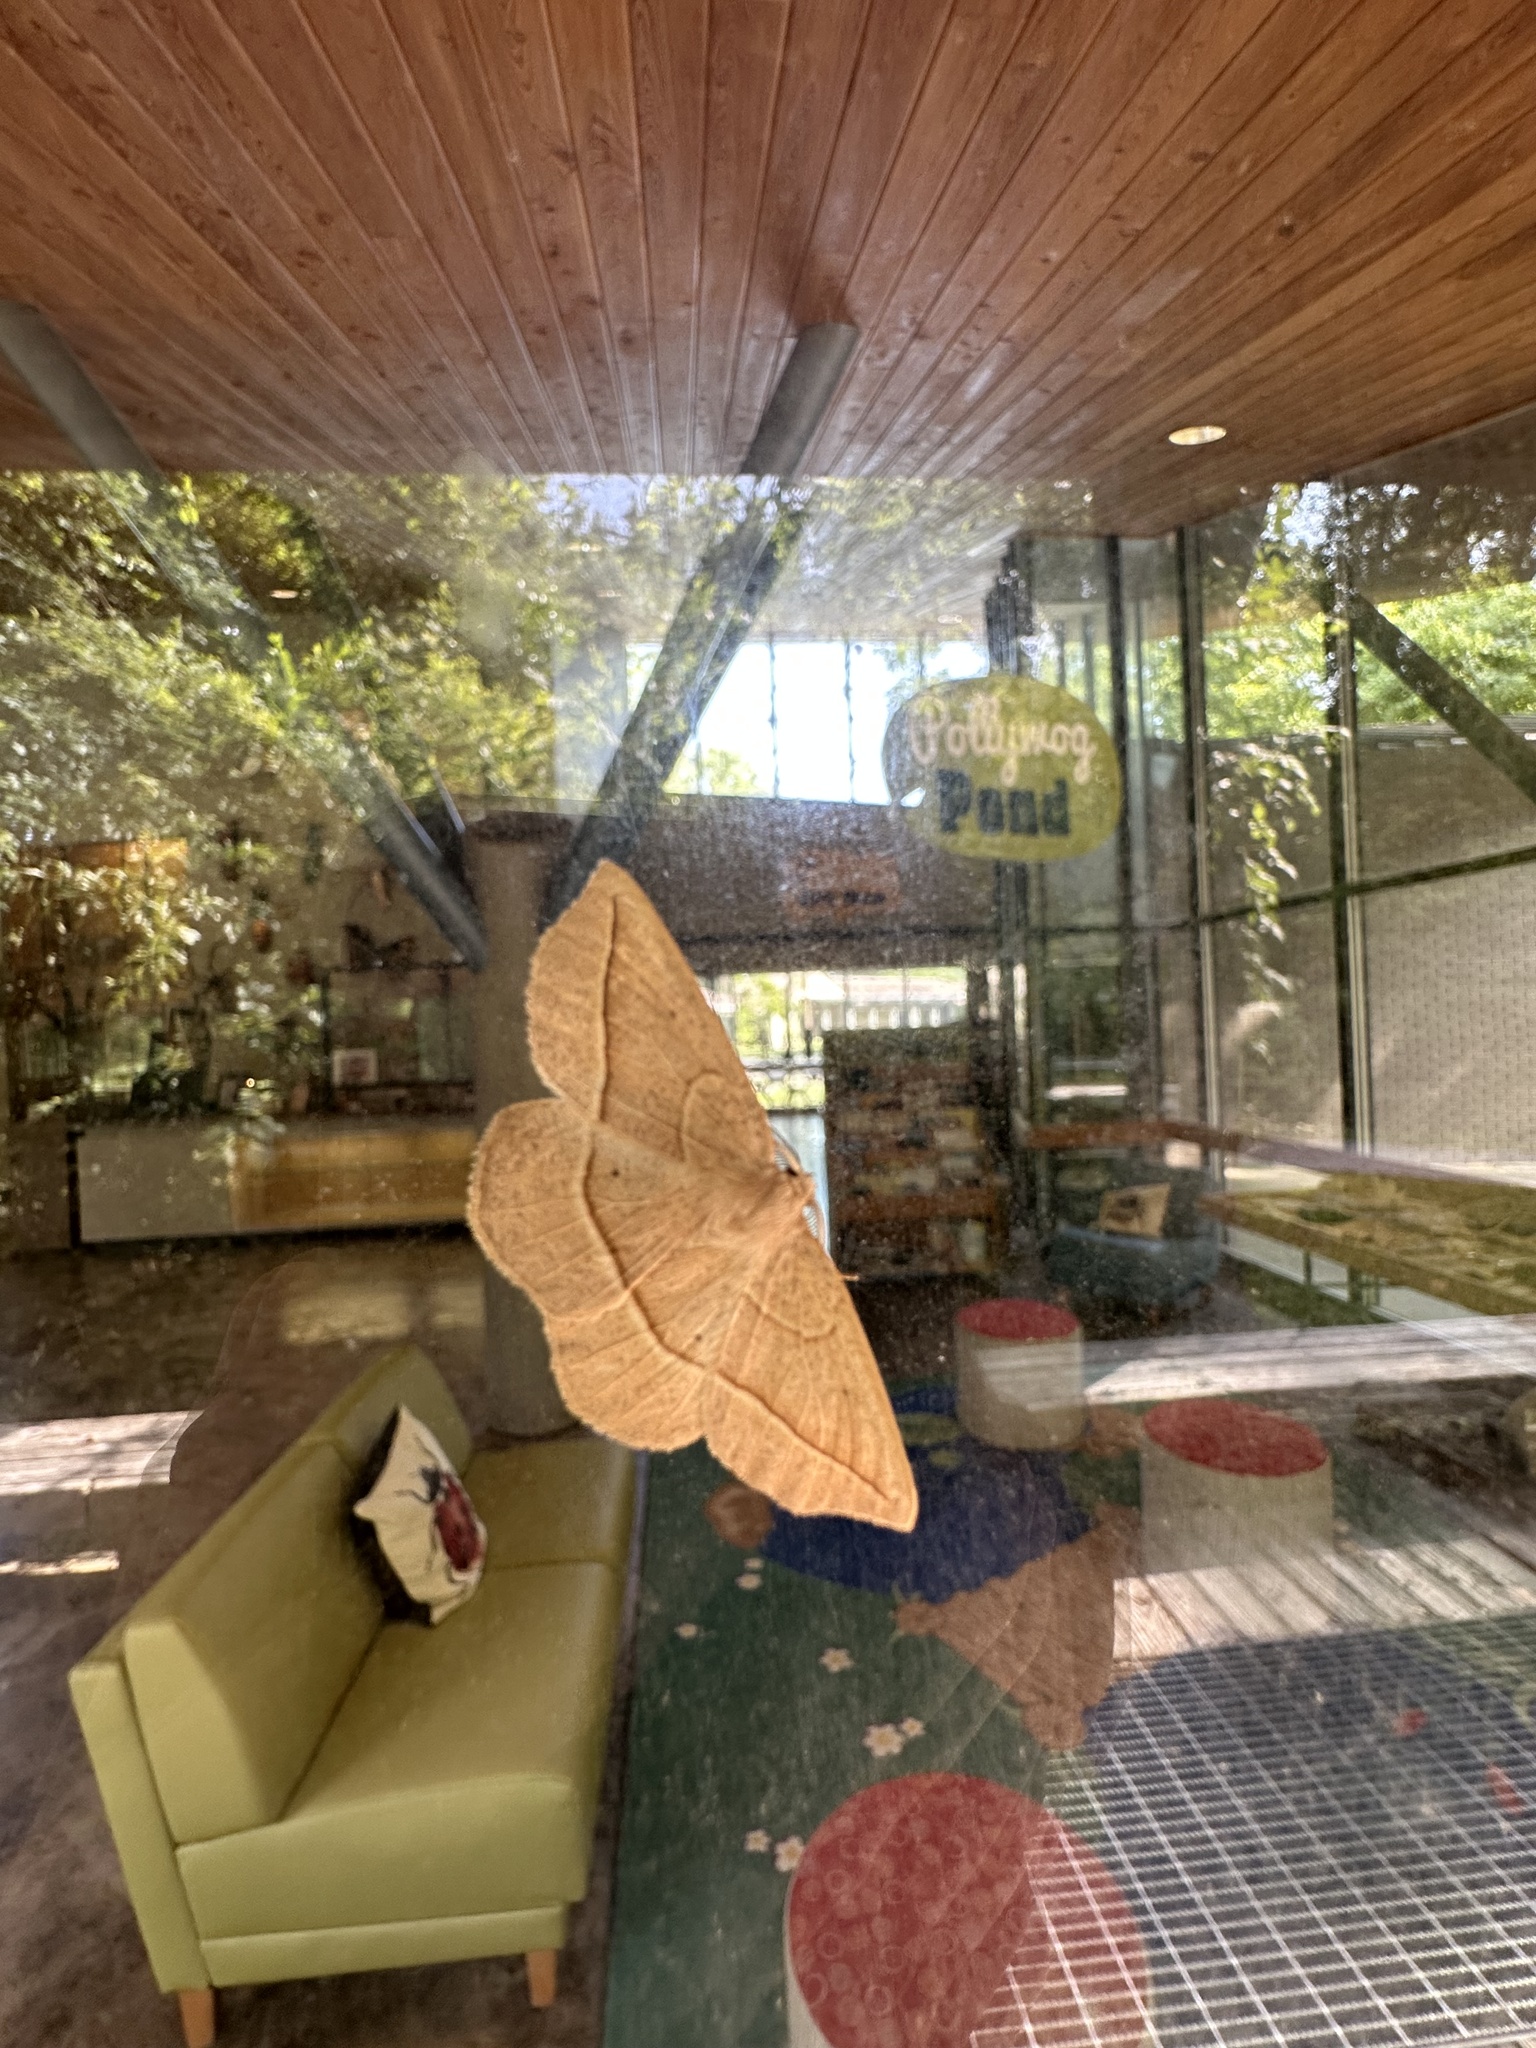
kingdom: Animalia
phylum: Arthropoda
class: Insecta
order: Lepidoptera
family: Geometridae
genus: Eusarca
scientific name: Eusarca confusaria
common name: Confused eusarca
